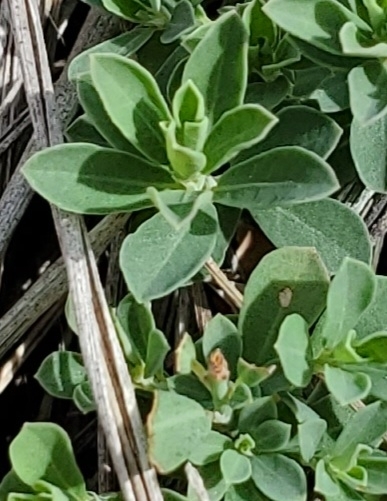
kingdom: Plantae
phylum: Tracheophyta
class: Magnoliopsida
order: Malpighiales
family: Phyllanthaceae
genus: Phyllanthus
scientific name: Phyllanthus polygonoides
